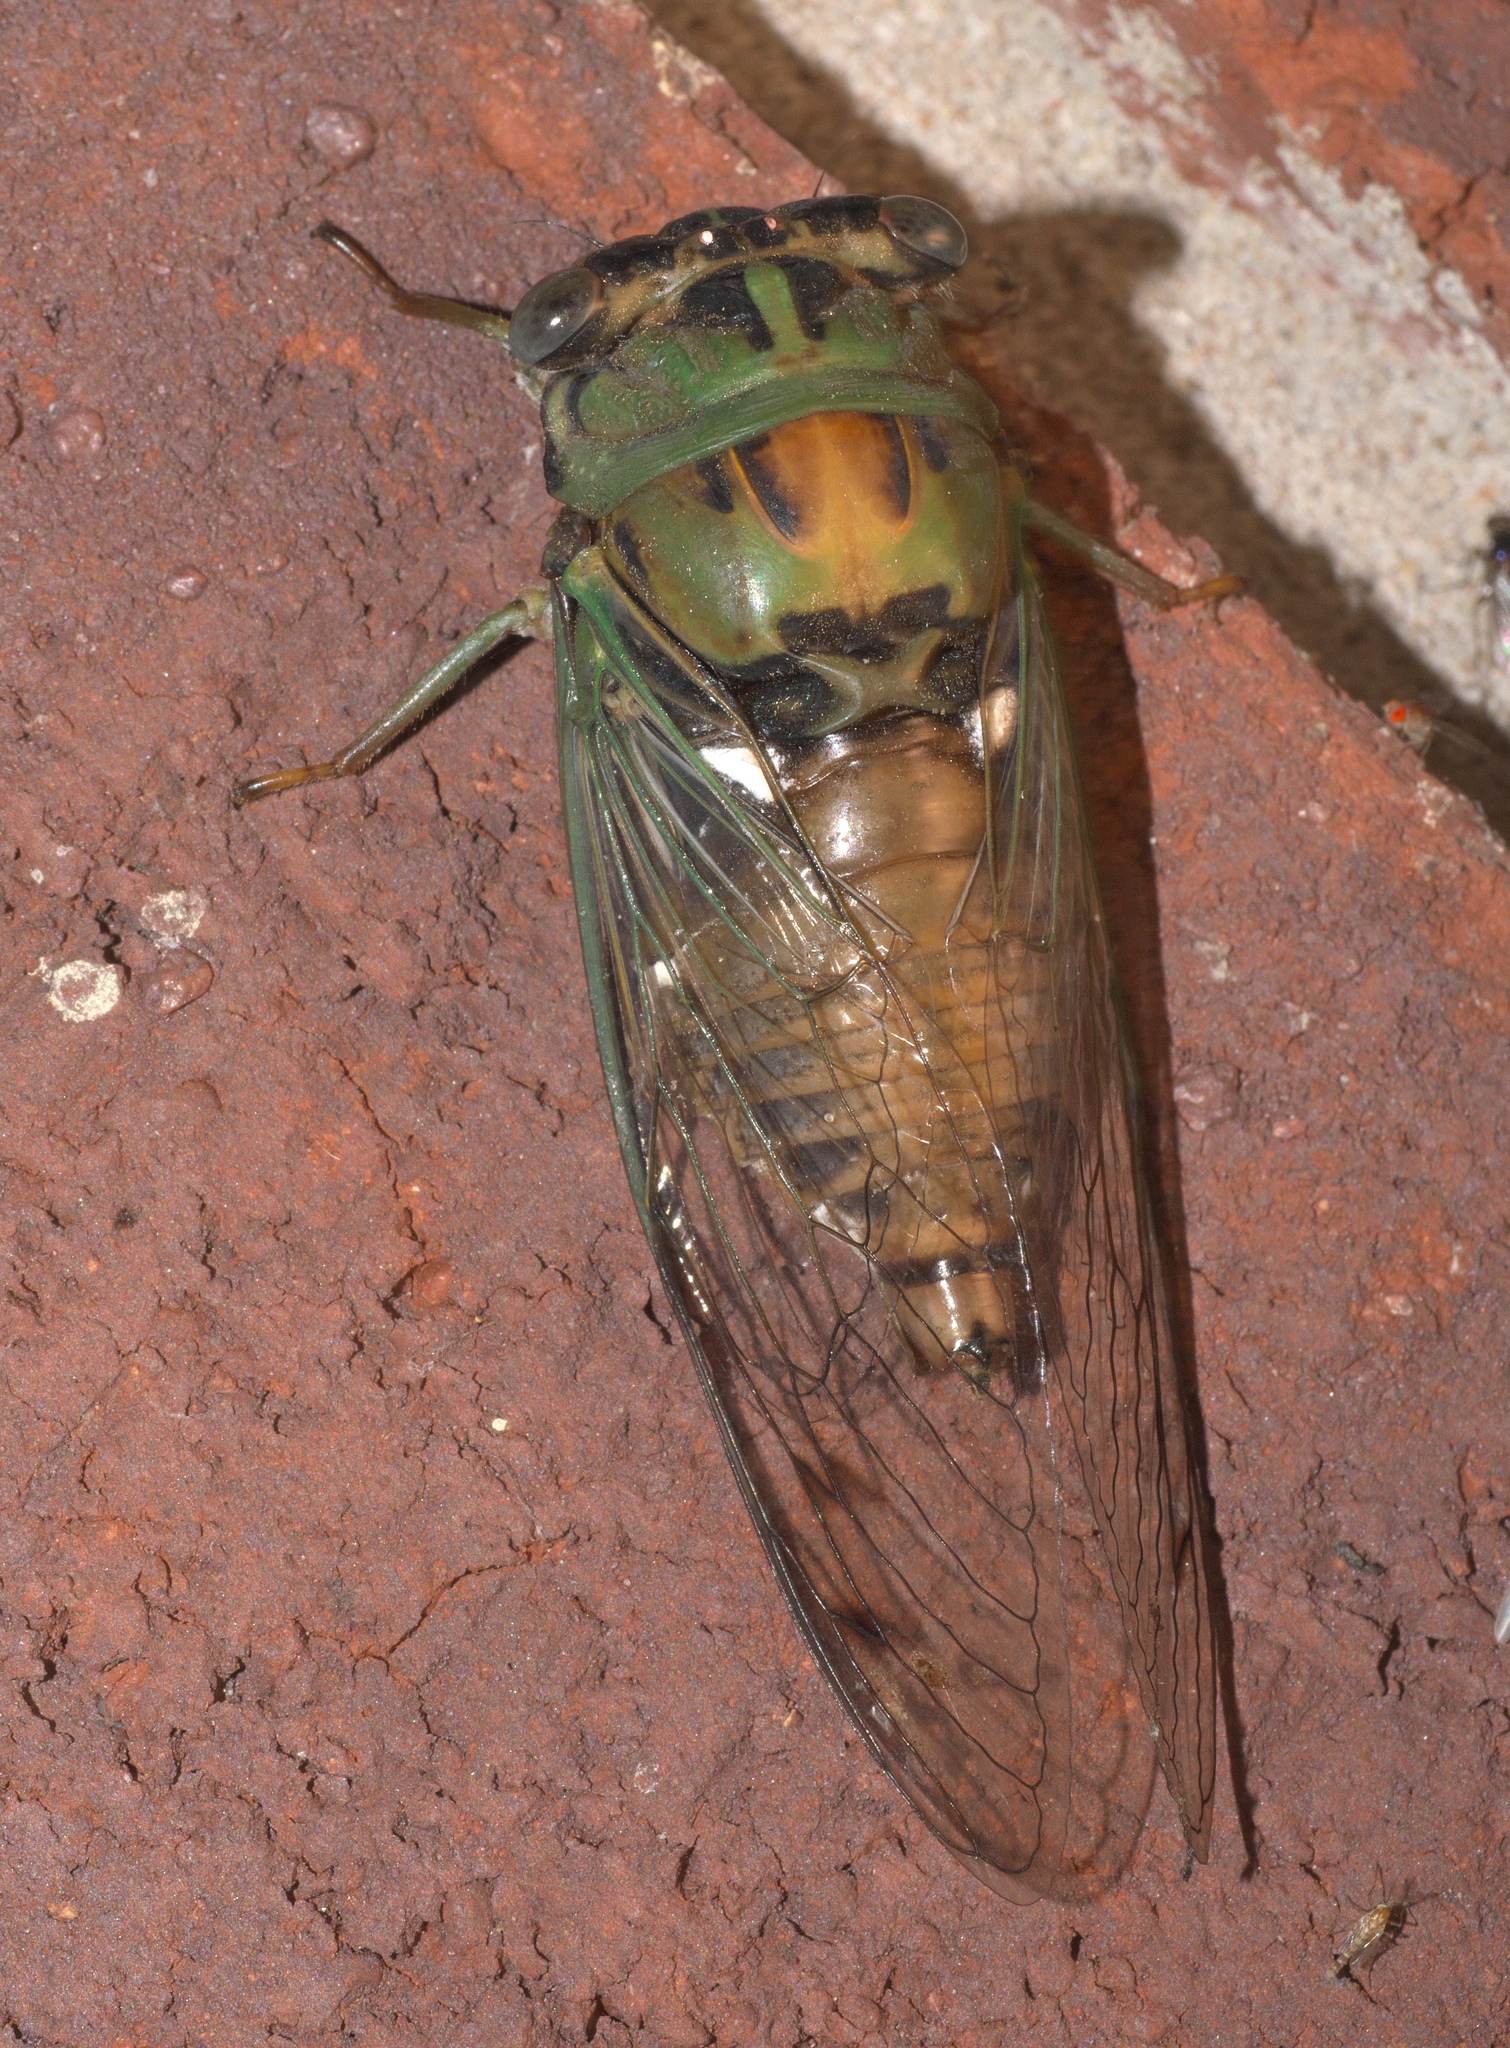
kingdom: Animalia
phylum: Arthropoda
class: Insecta
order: Hemiptera
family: Cicadidae
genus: Neotibicen
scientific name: Neotibicen pruinosus
